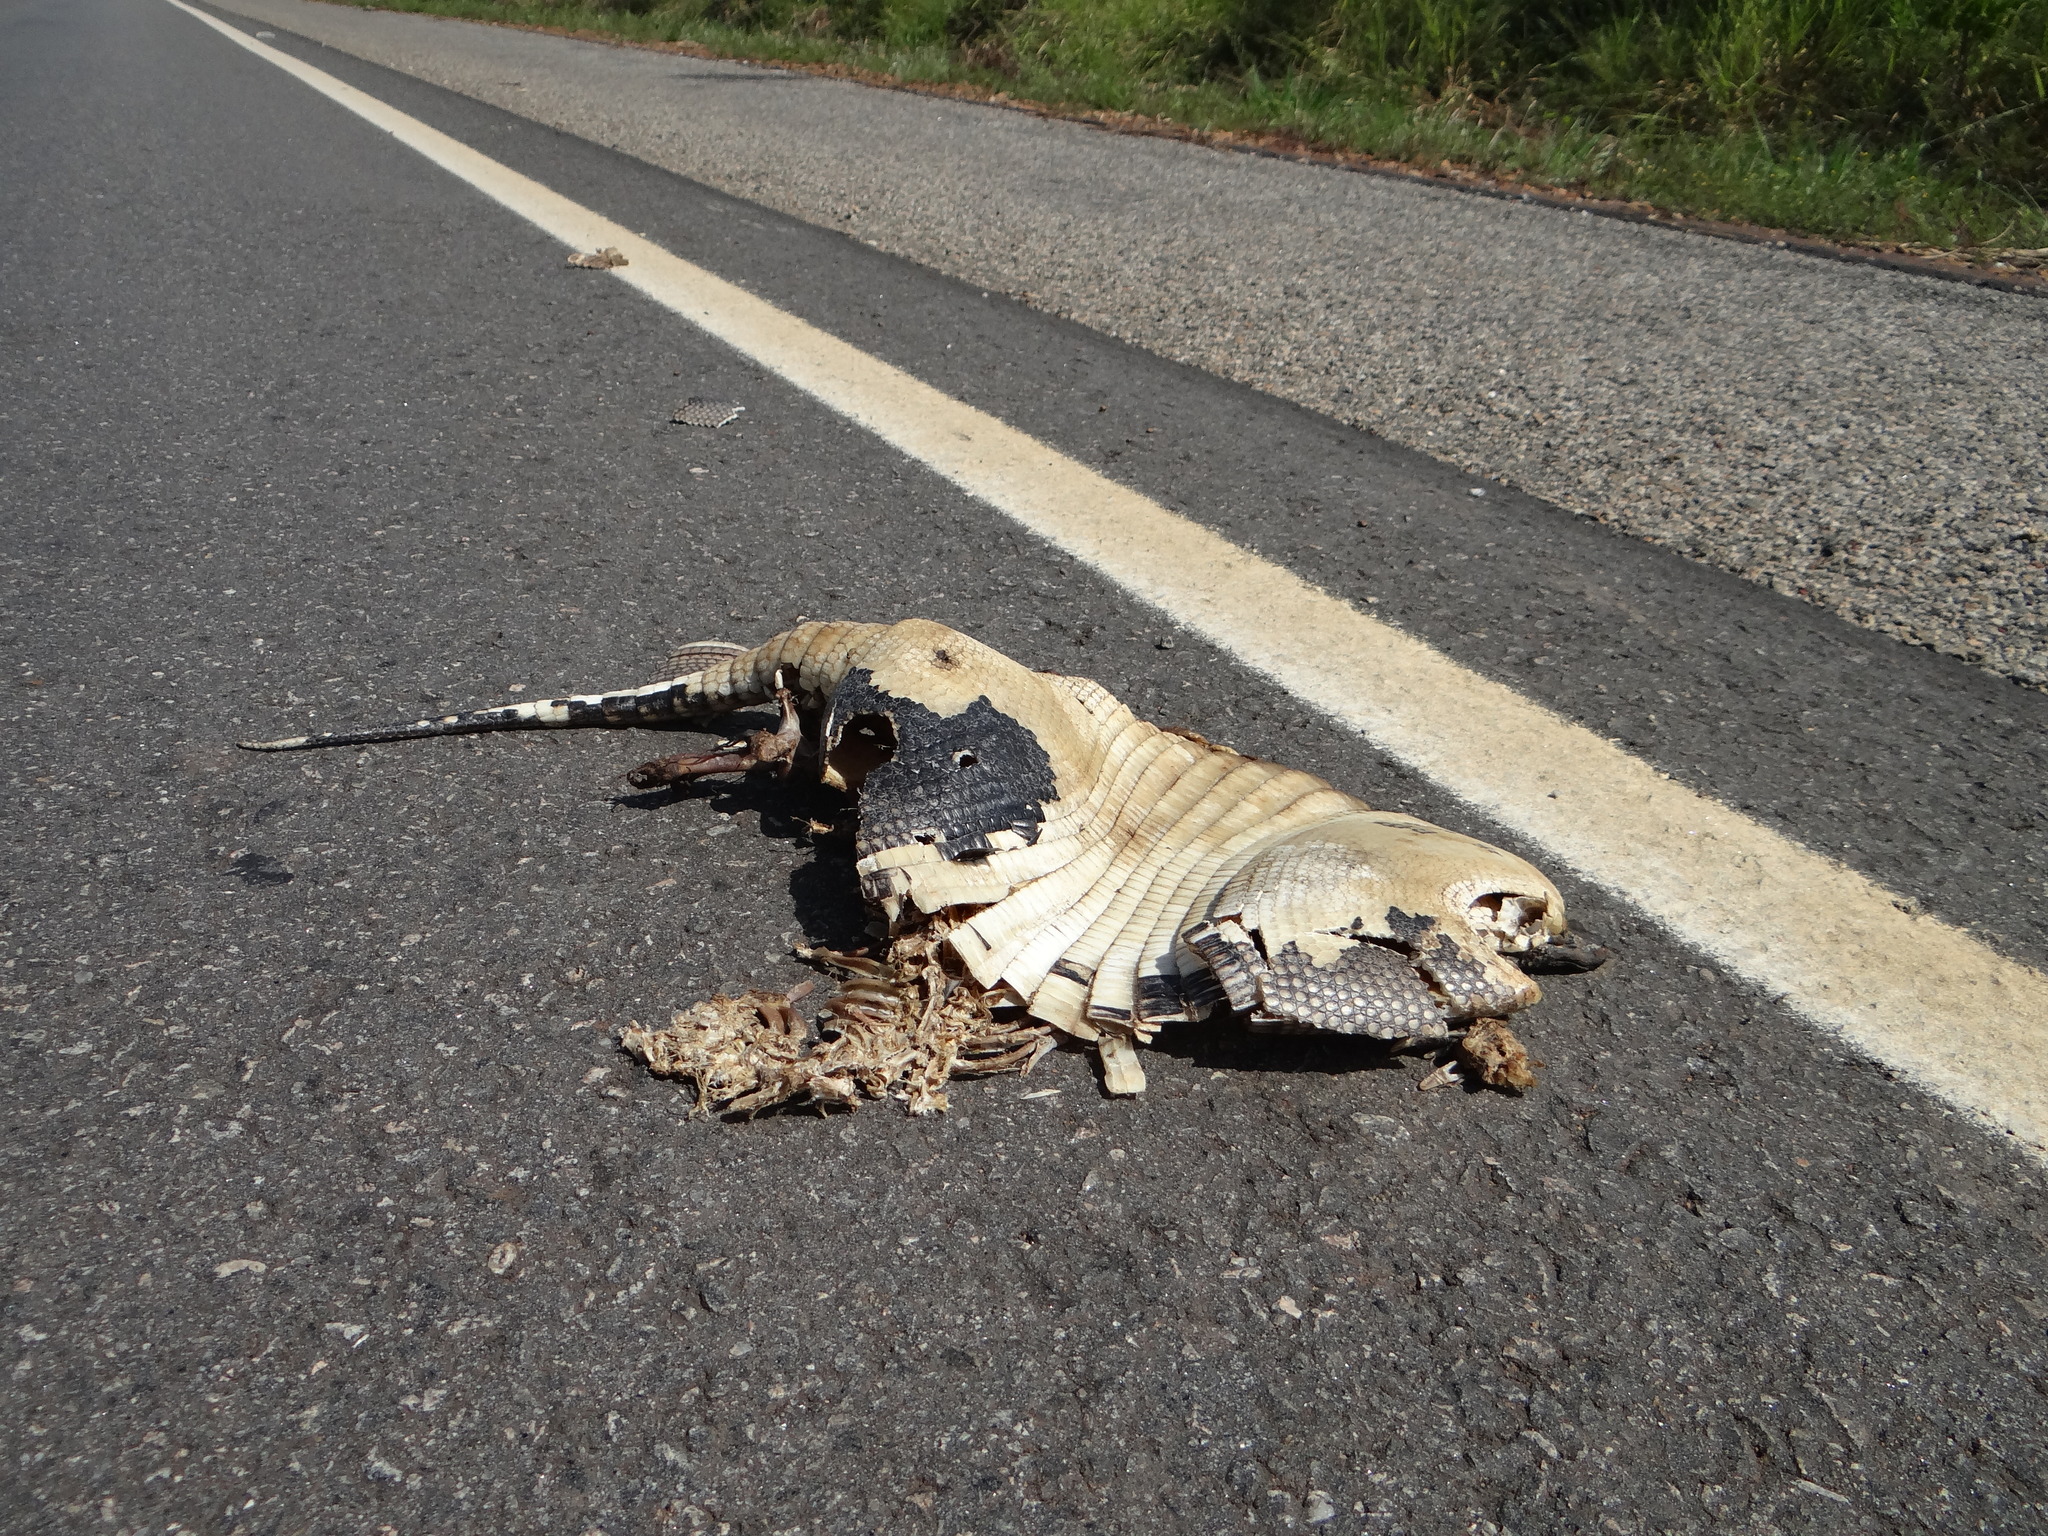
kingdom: Animalia
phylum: Chordata
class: Mammalia
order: Cingulata
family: Dasypodidae
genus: Euphractus
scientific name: Euphractus sexcinctus
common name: Six-banded armadillo
